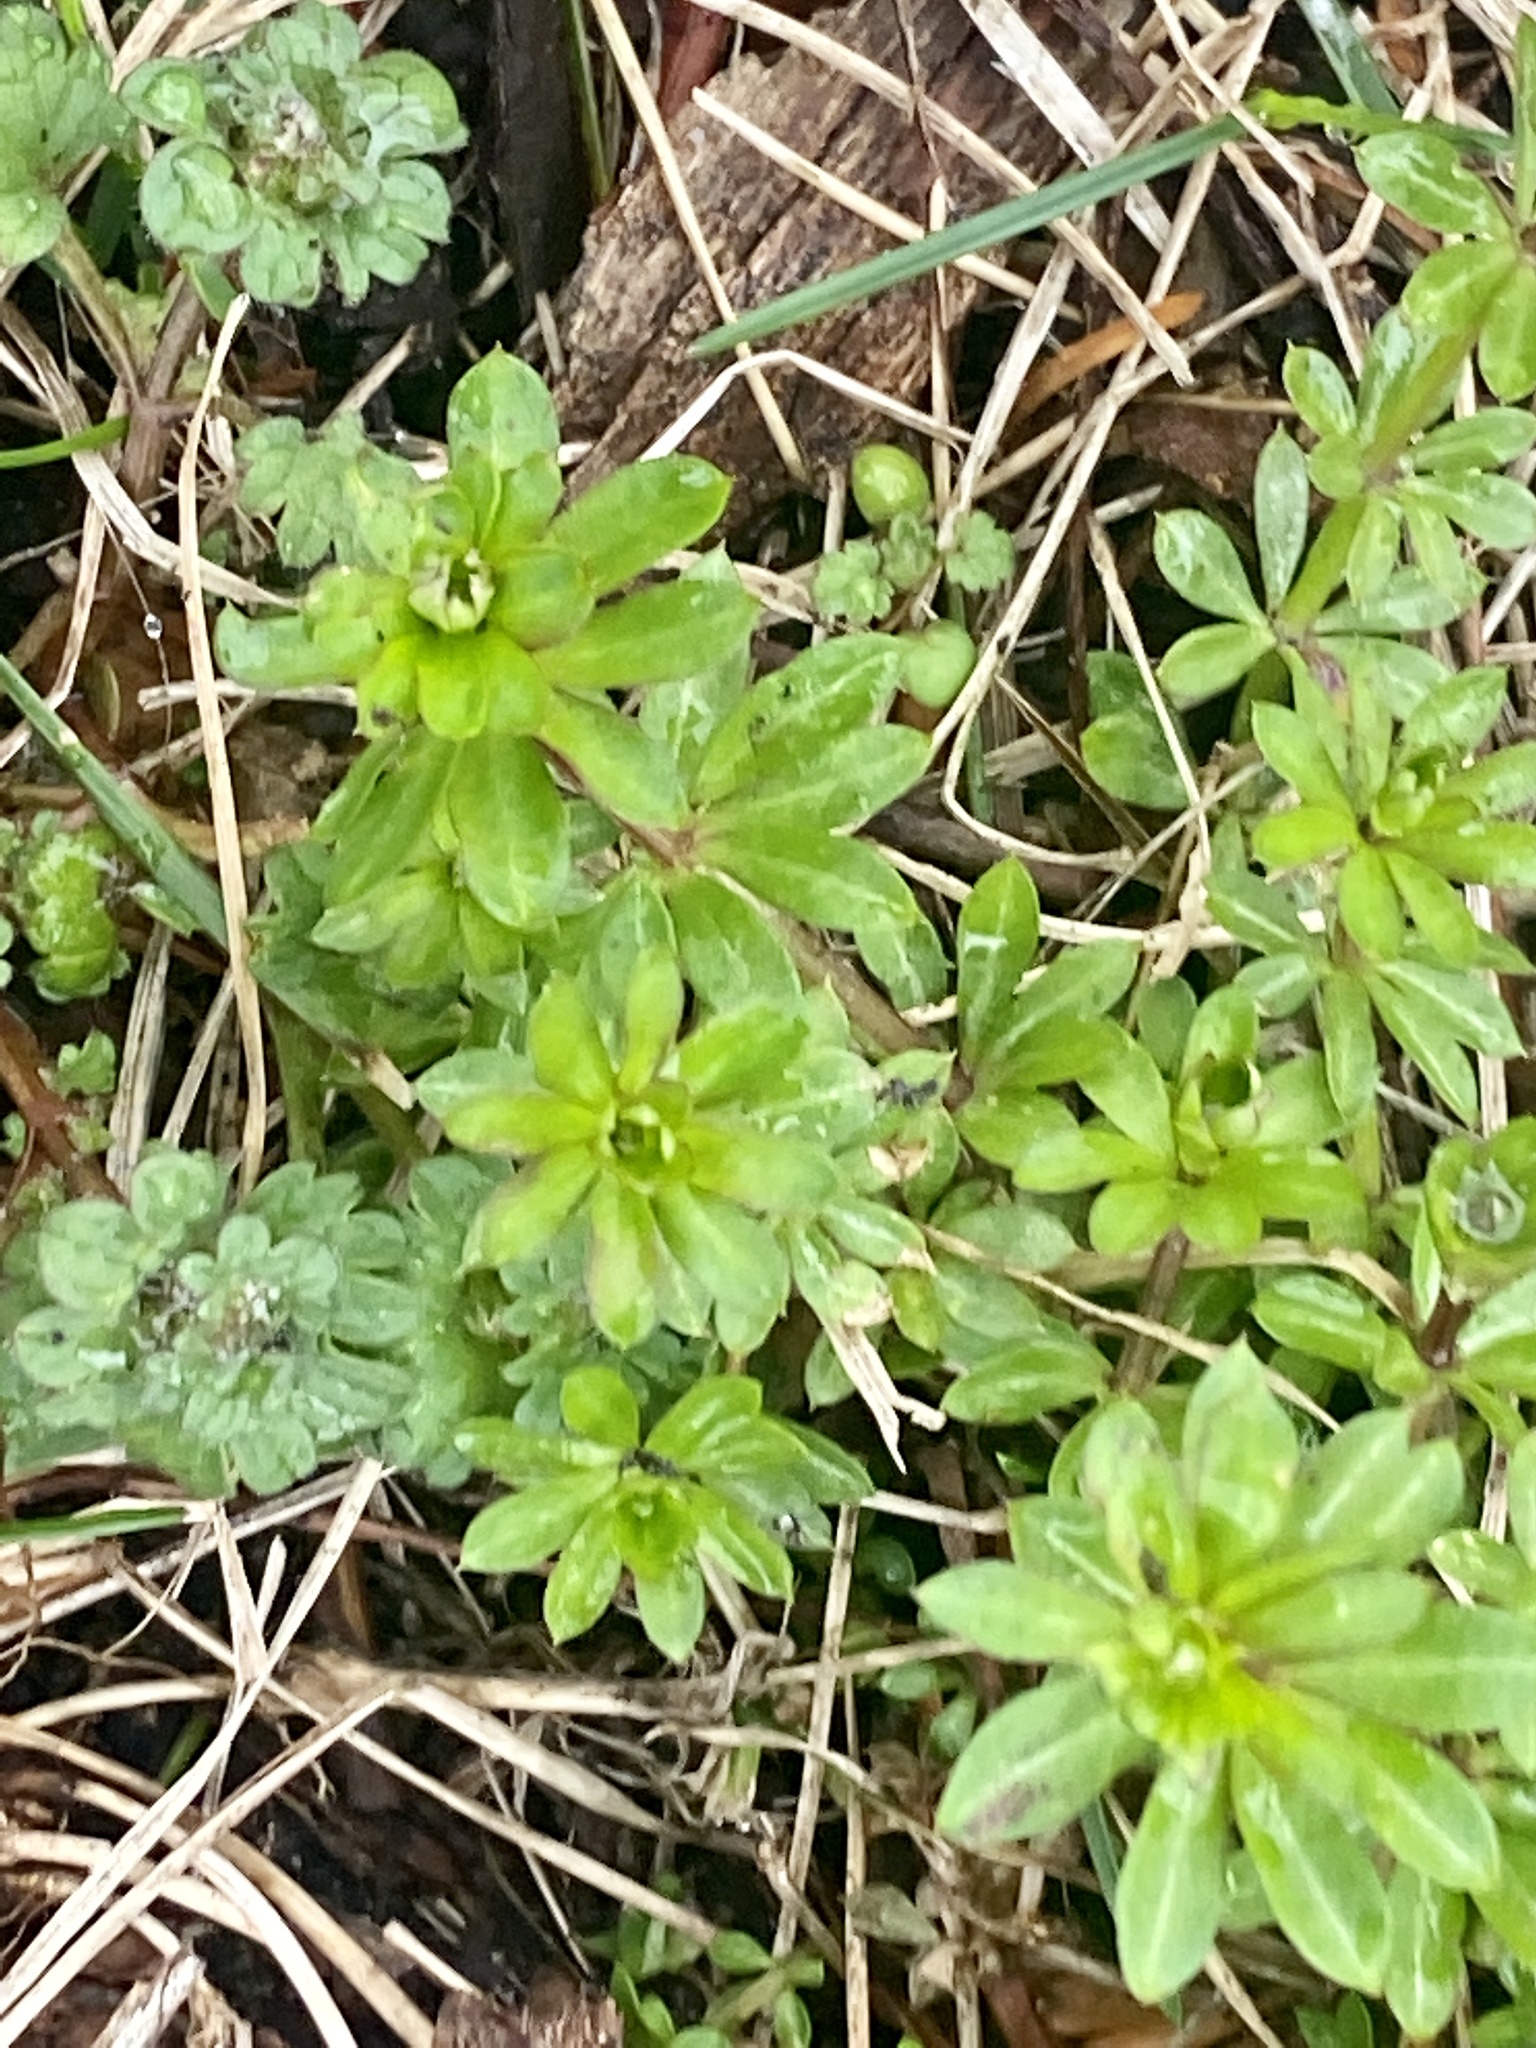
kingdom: Plantae
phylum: Tracheophyta
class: Magnoliopsida
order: Gentianales
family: Rubiaceae
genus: Galium
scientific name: Galium mollugo
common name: Hedge bedstraw
